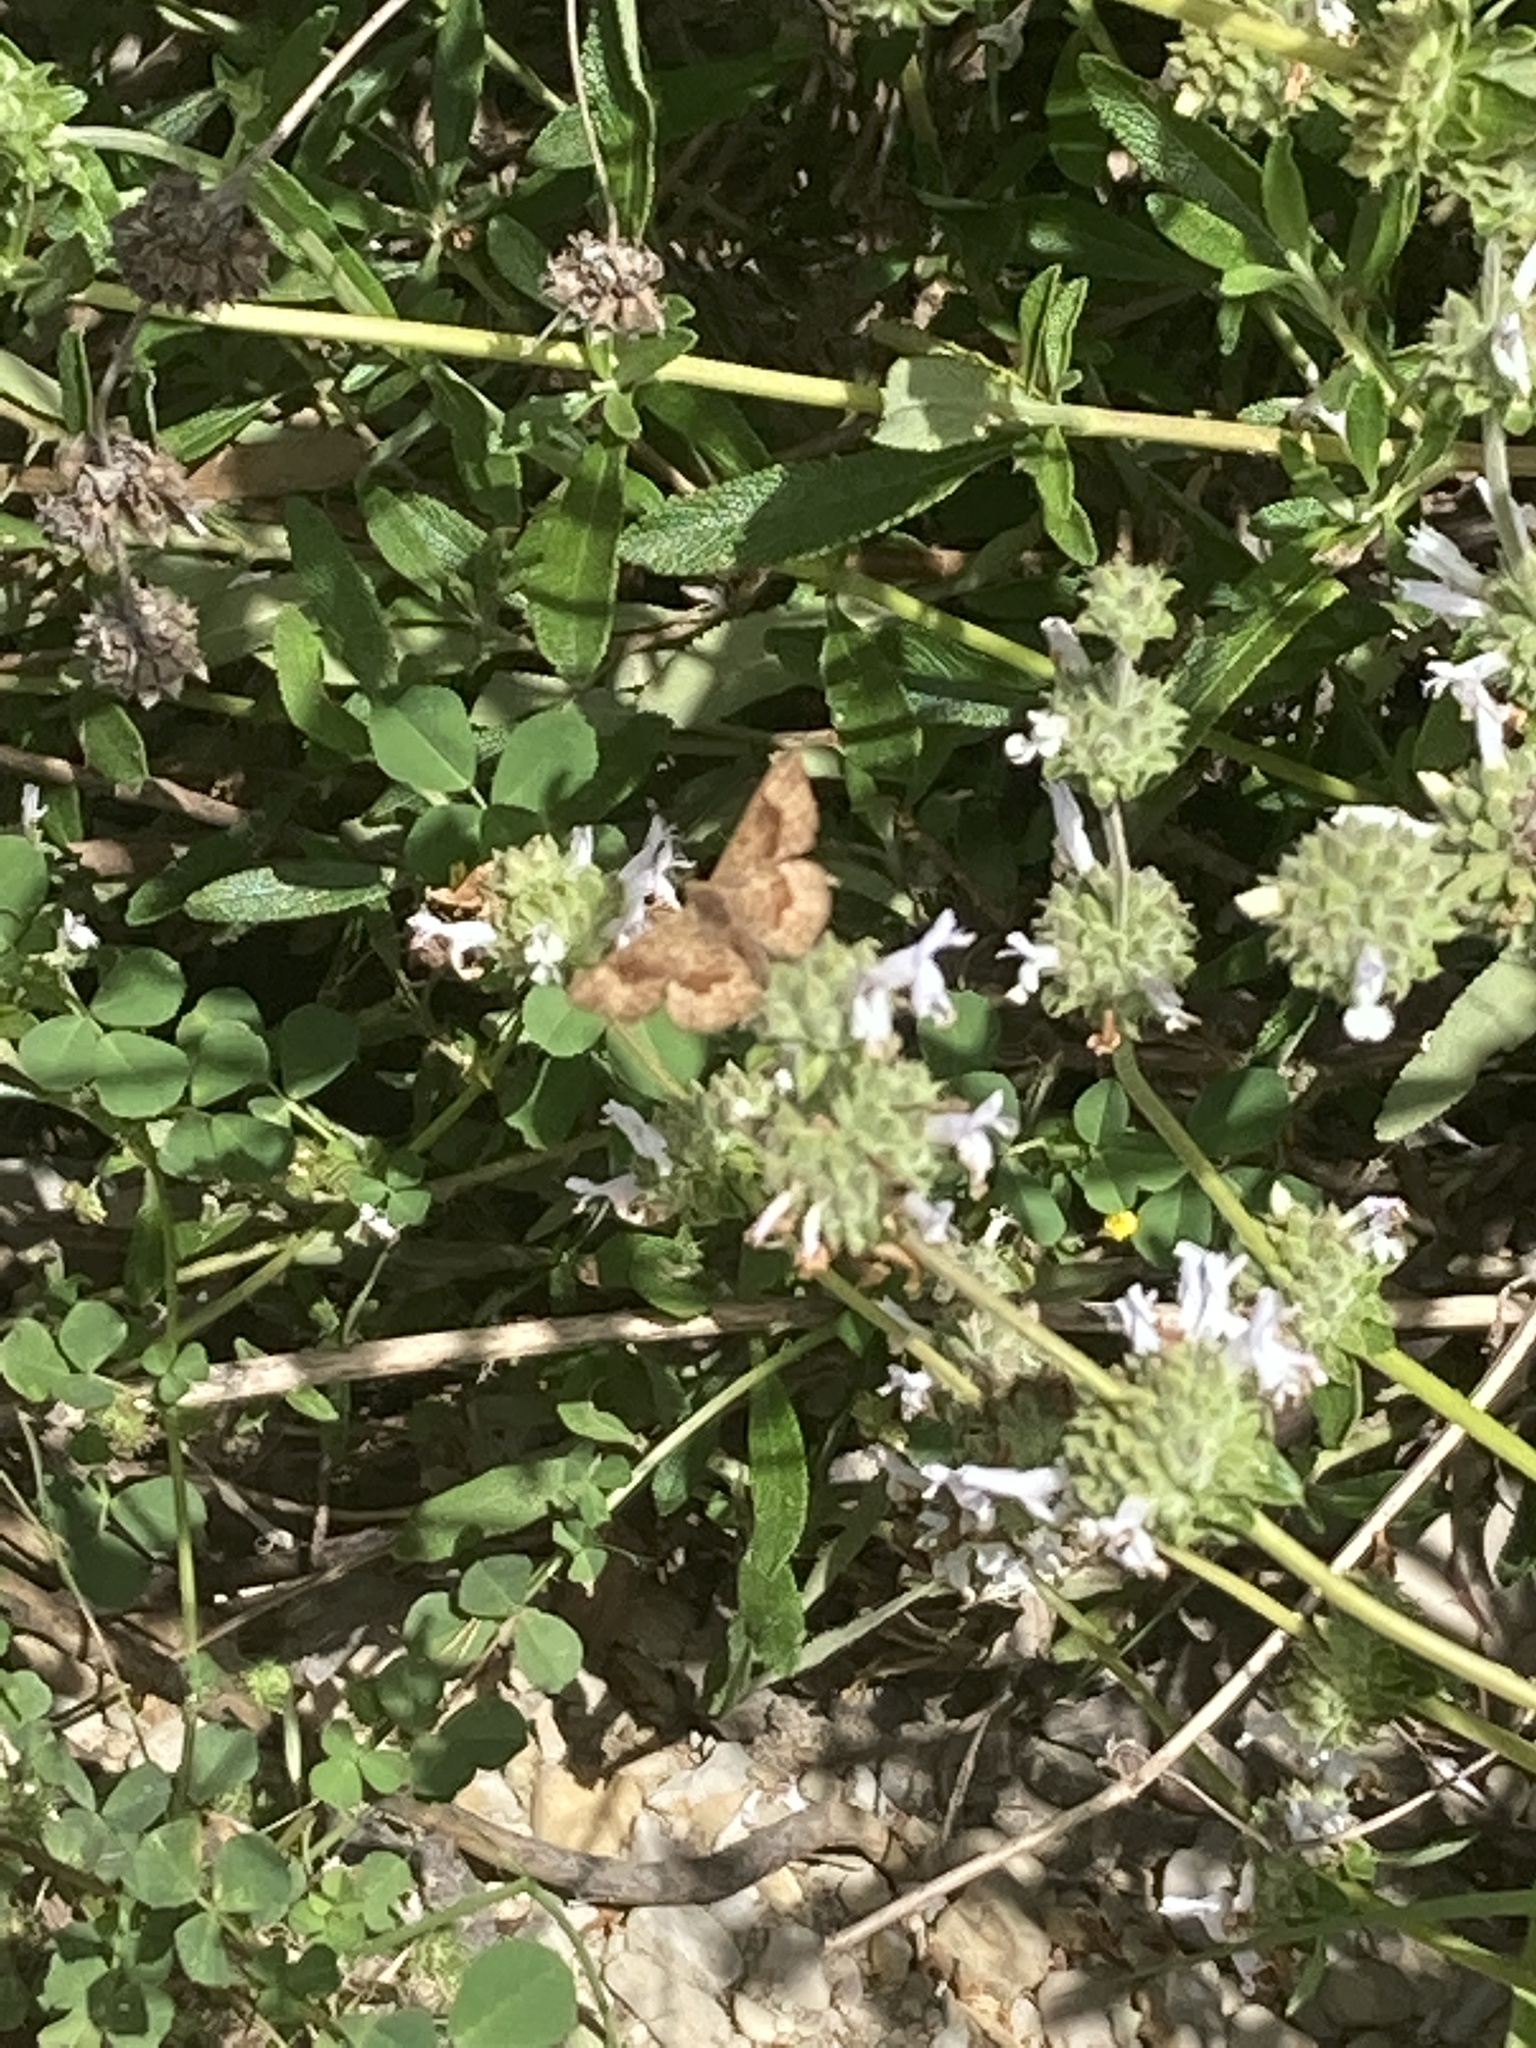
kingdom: Animalia
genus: Calephelis
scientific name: Calephelis nemesis
